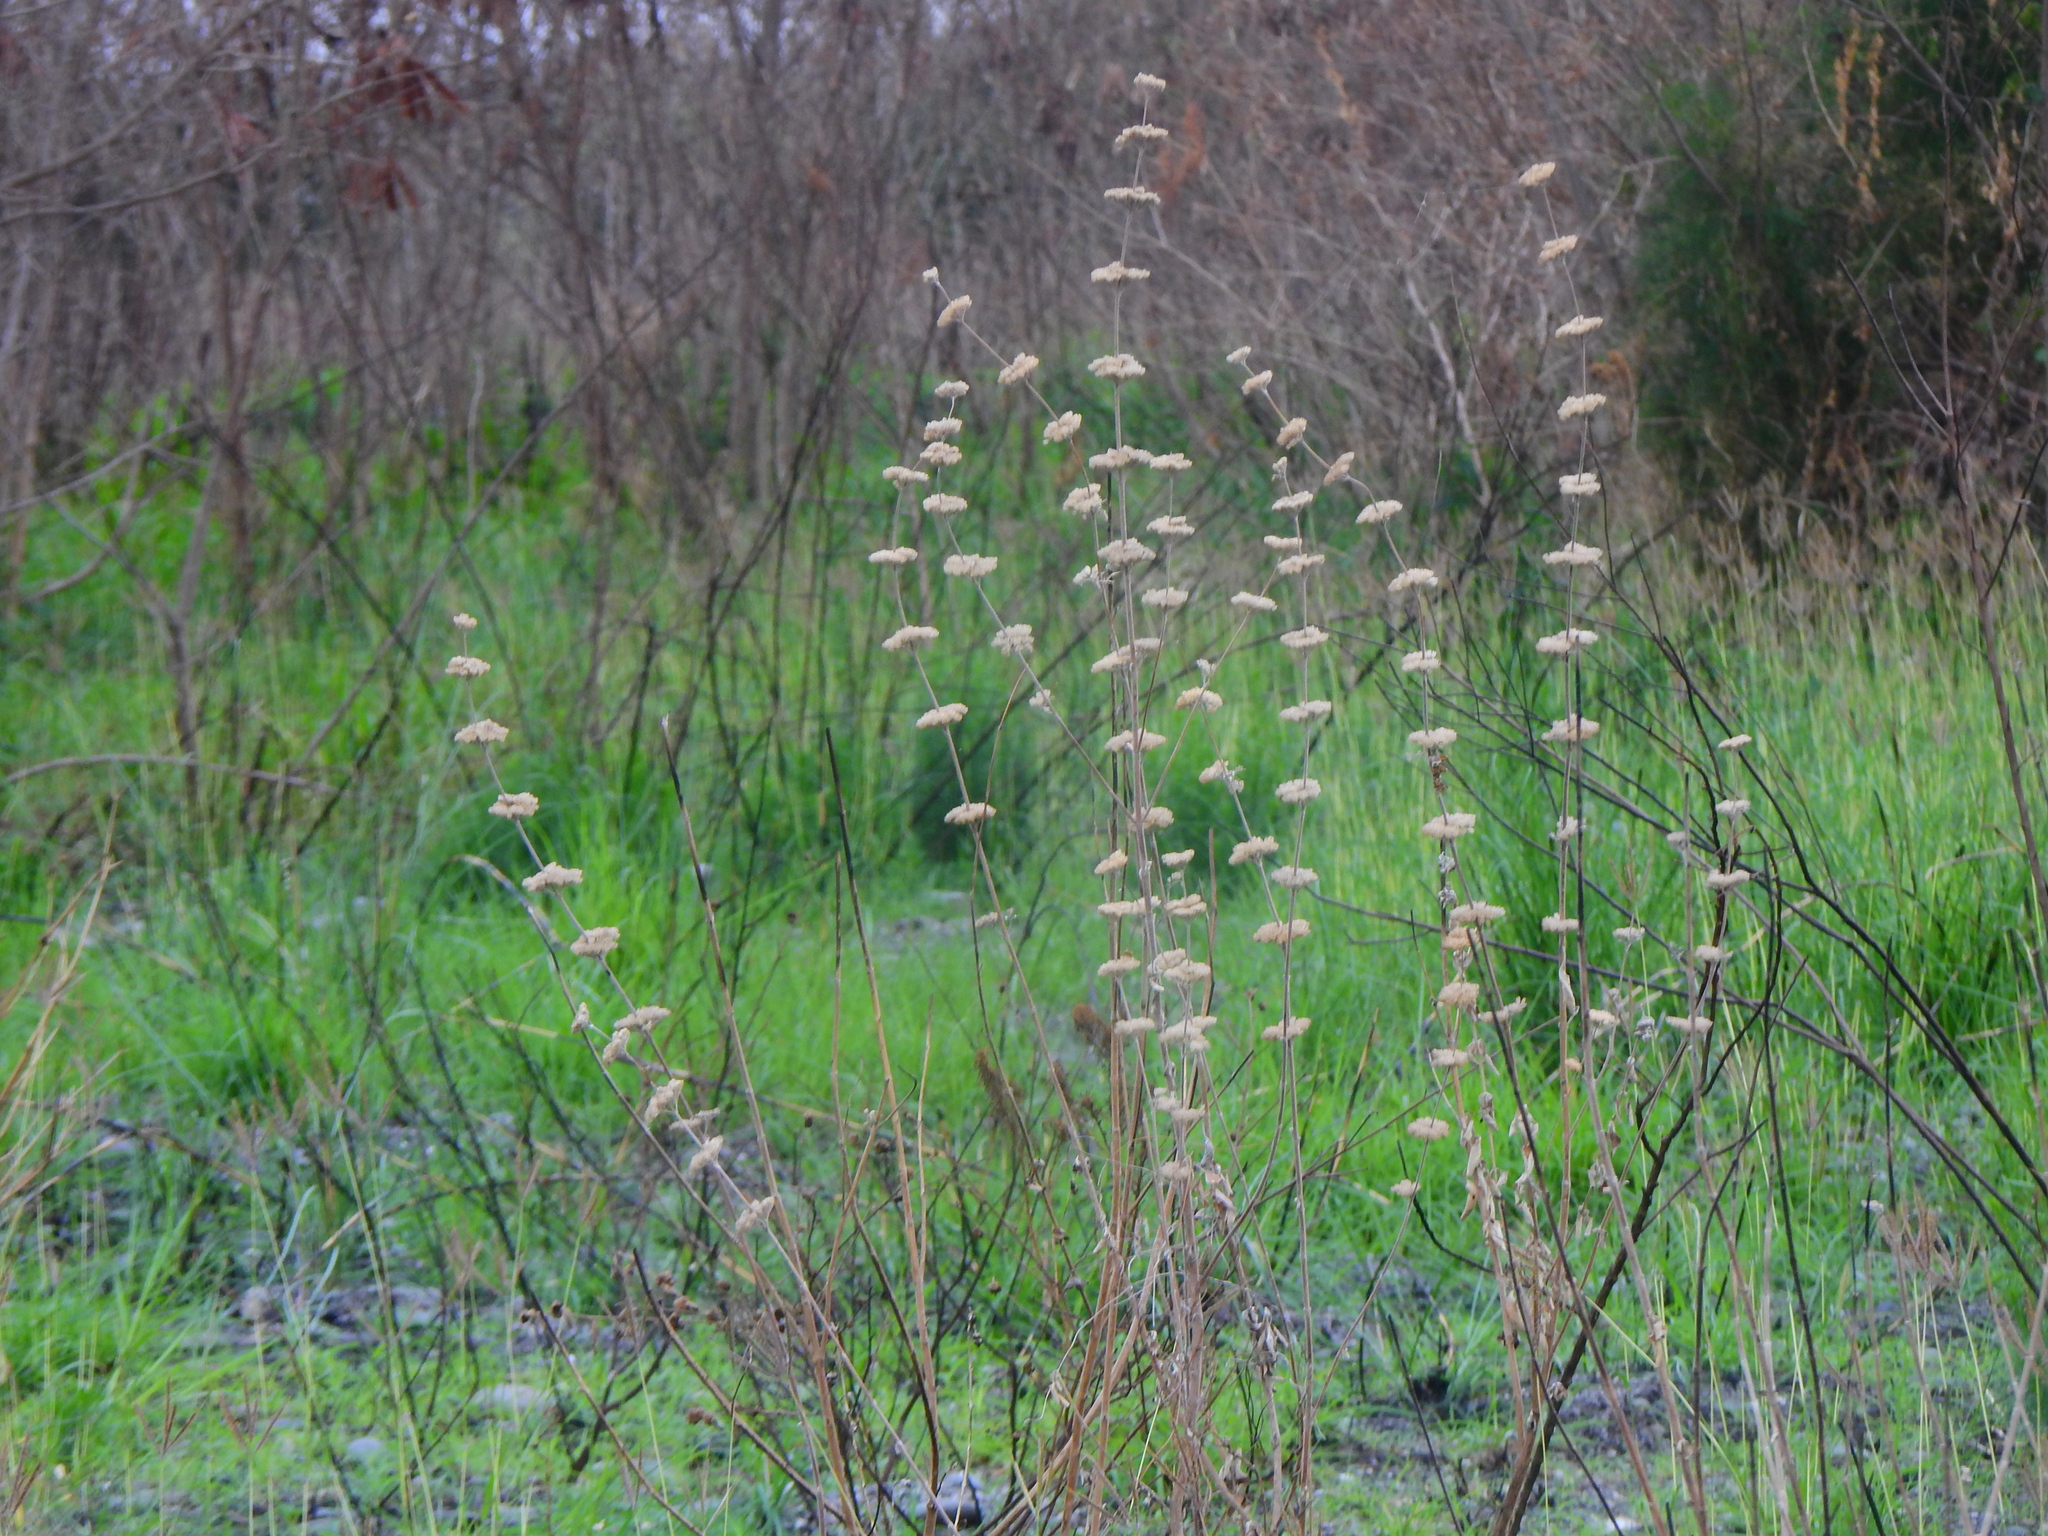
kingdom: Plantae
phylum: Tracheophyta
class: Magnoliopsida
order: Lamiales
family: Lamiaceae
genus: Caryopteris
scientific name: Caryopteris incana
